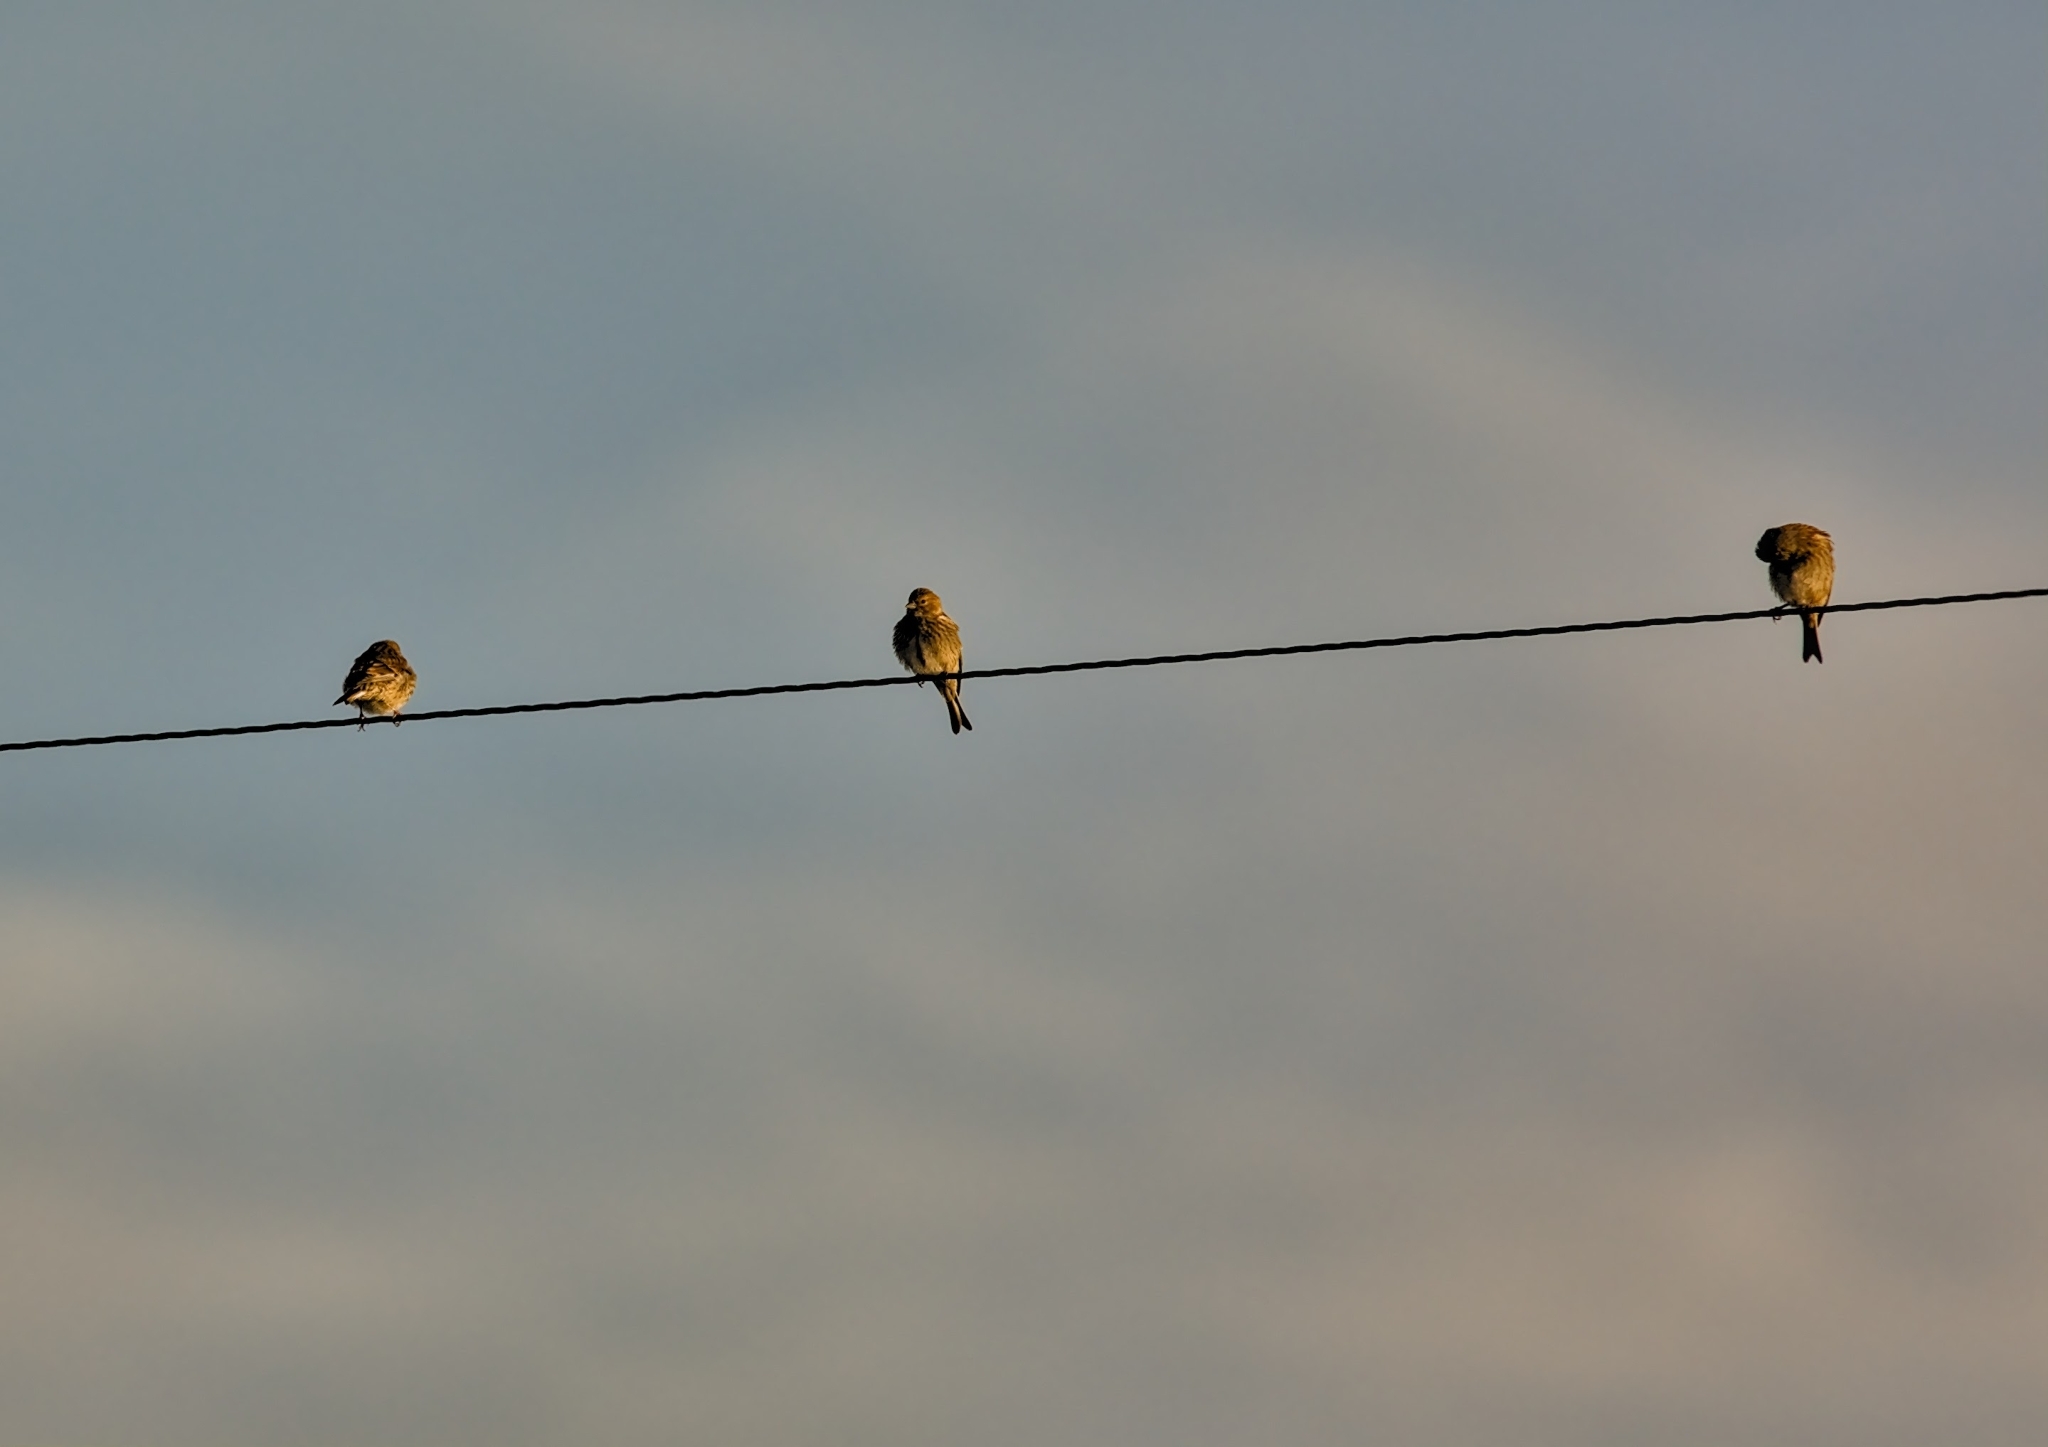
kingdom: Animalia
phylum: Chordata
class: Aves
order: Passeriformes
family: Fringillidae
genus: Linaria
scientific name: Linaria cannabina
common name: Common linnet
